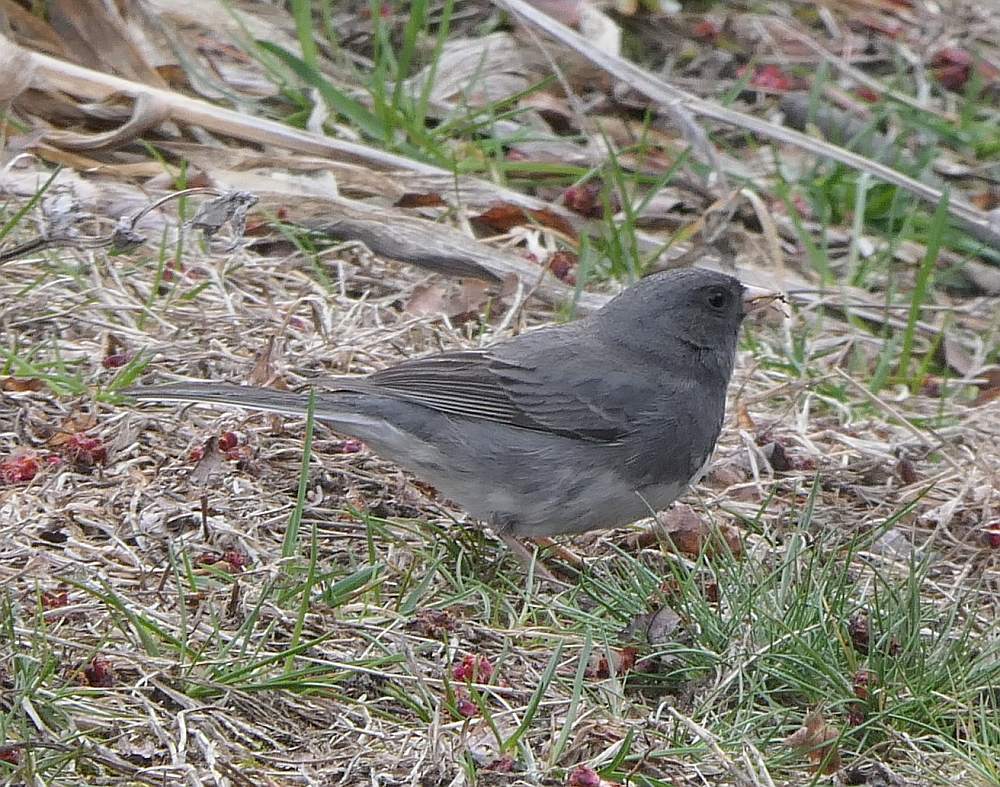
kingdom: Animalia
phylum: Chordata
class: Aves
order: Passeriformes
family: Passerellidae
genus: Junco
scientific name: Junco hyemalis
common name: Dark-eyed junco
